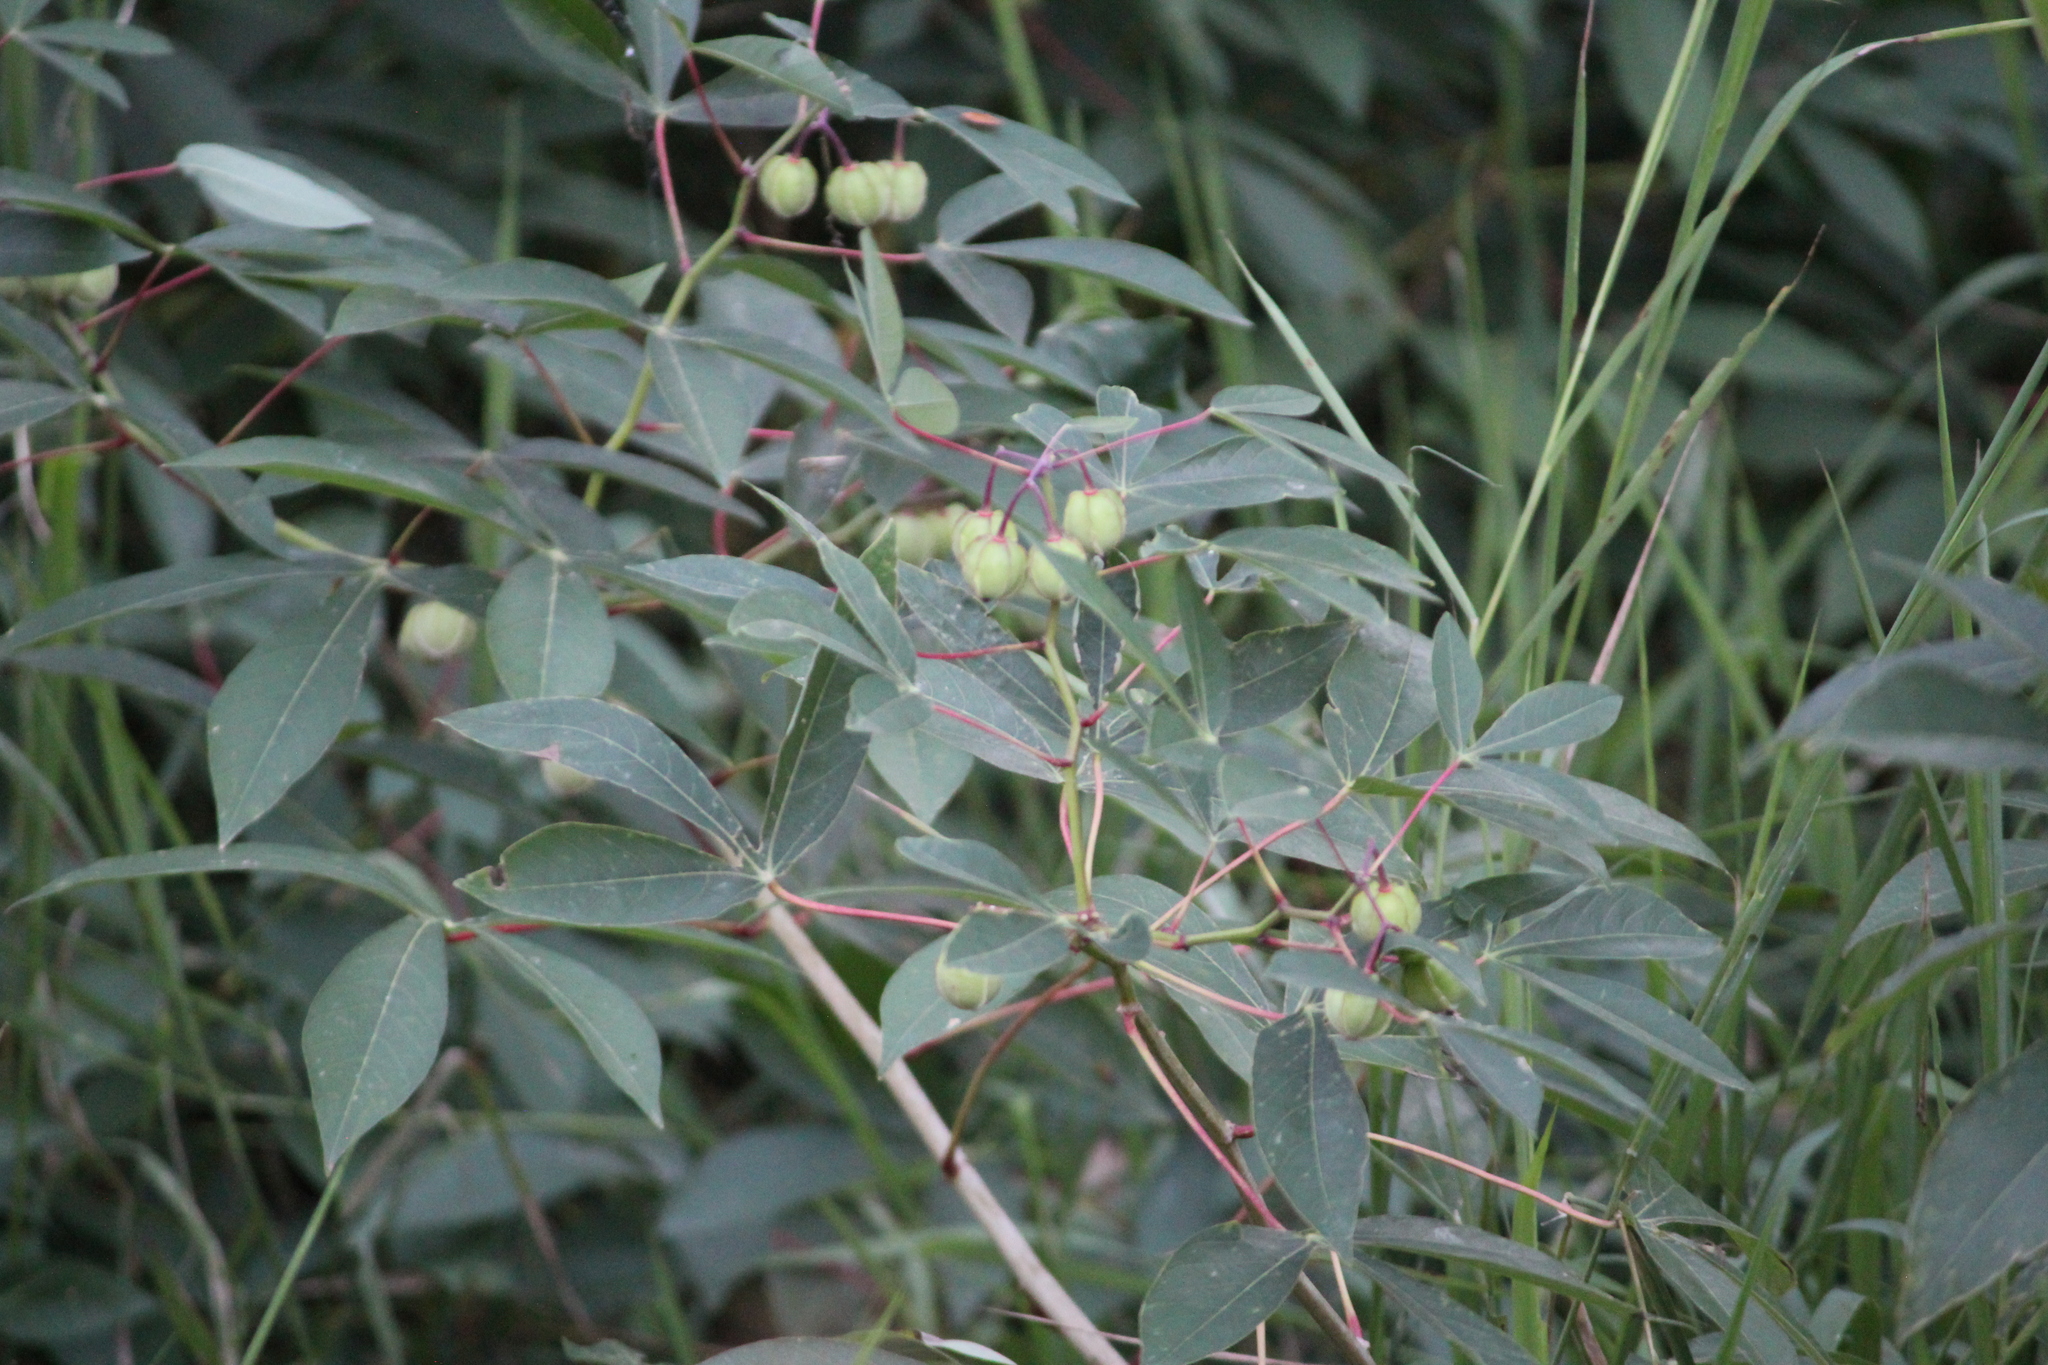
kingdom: Plantae
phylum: Tracheophyta
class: Magnoliopsida
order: Malpighiales
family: Euphorbiaceae
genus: Manihot
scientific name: Manihot esculenta
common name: Cassava
